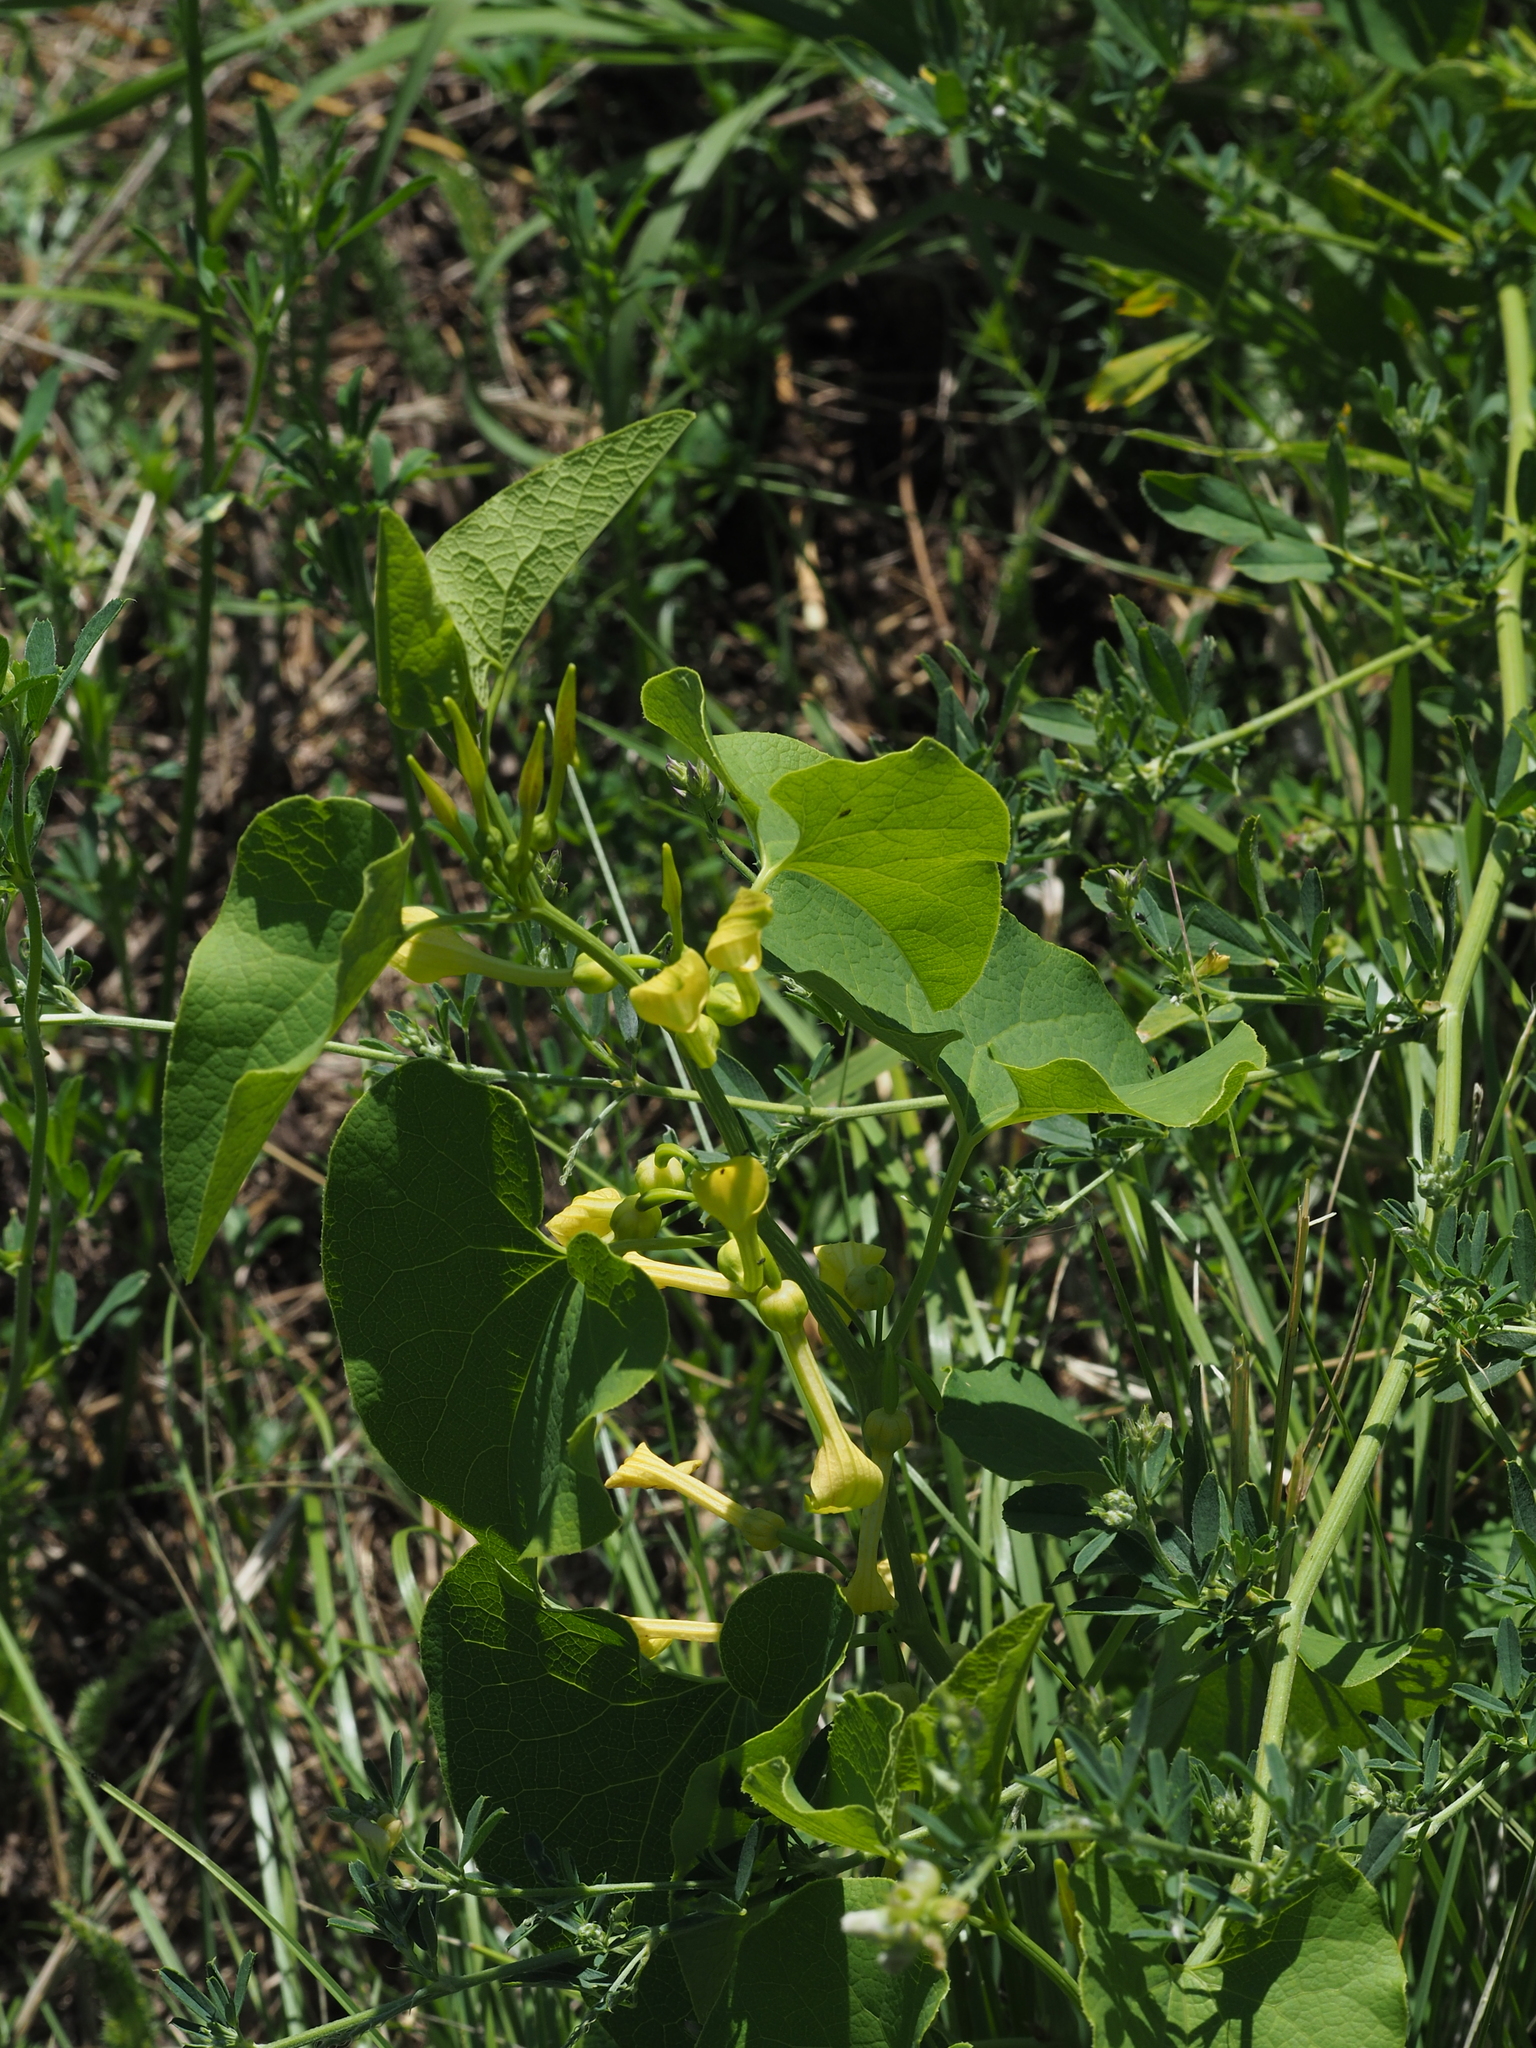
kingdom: Plantae
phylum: Tracheophyta
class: Magnoliopsida
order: Piperales
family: Aristolochiaceae
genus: Aristolochia
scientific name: Aristolochia clematitis
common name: Birthwort
